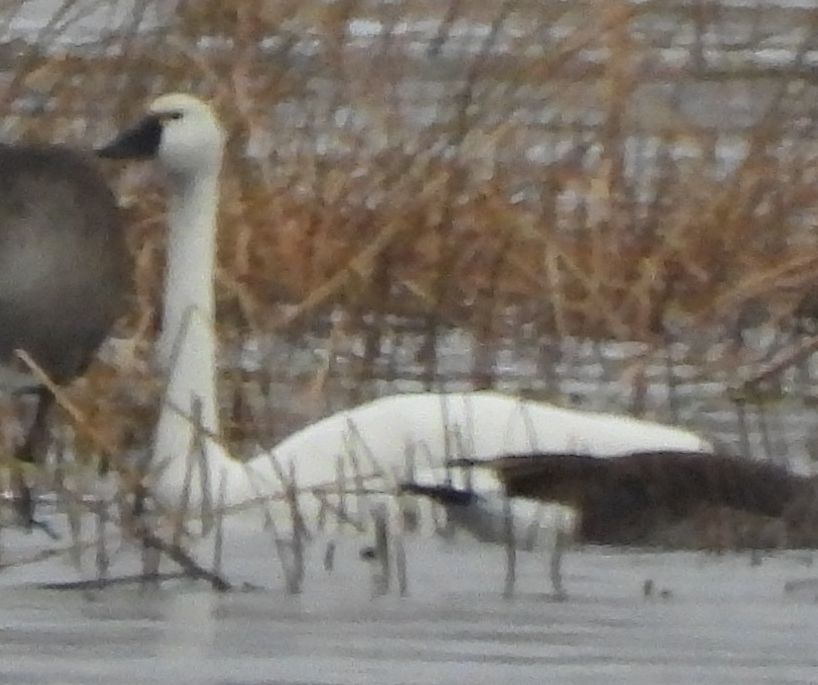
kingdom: Animalia
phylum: Chordata
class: Aves
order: Anseriformes
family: Anatidae
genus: Cygnus
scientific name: Cygnus columbianus
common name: Tundra swan
